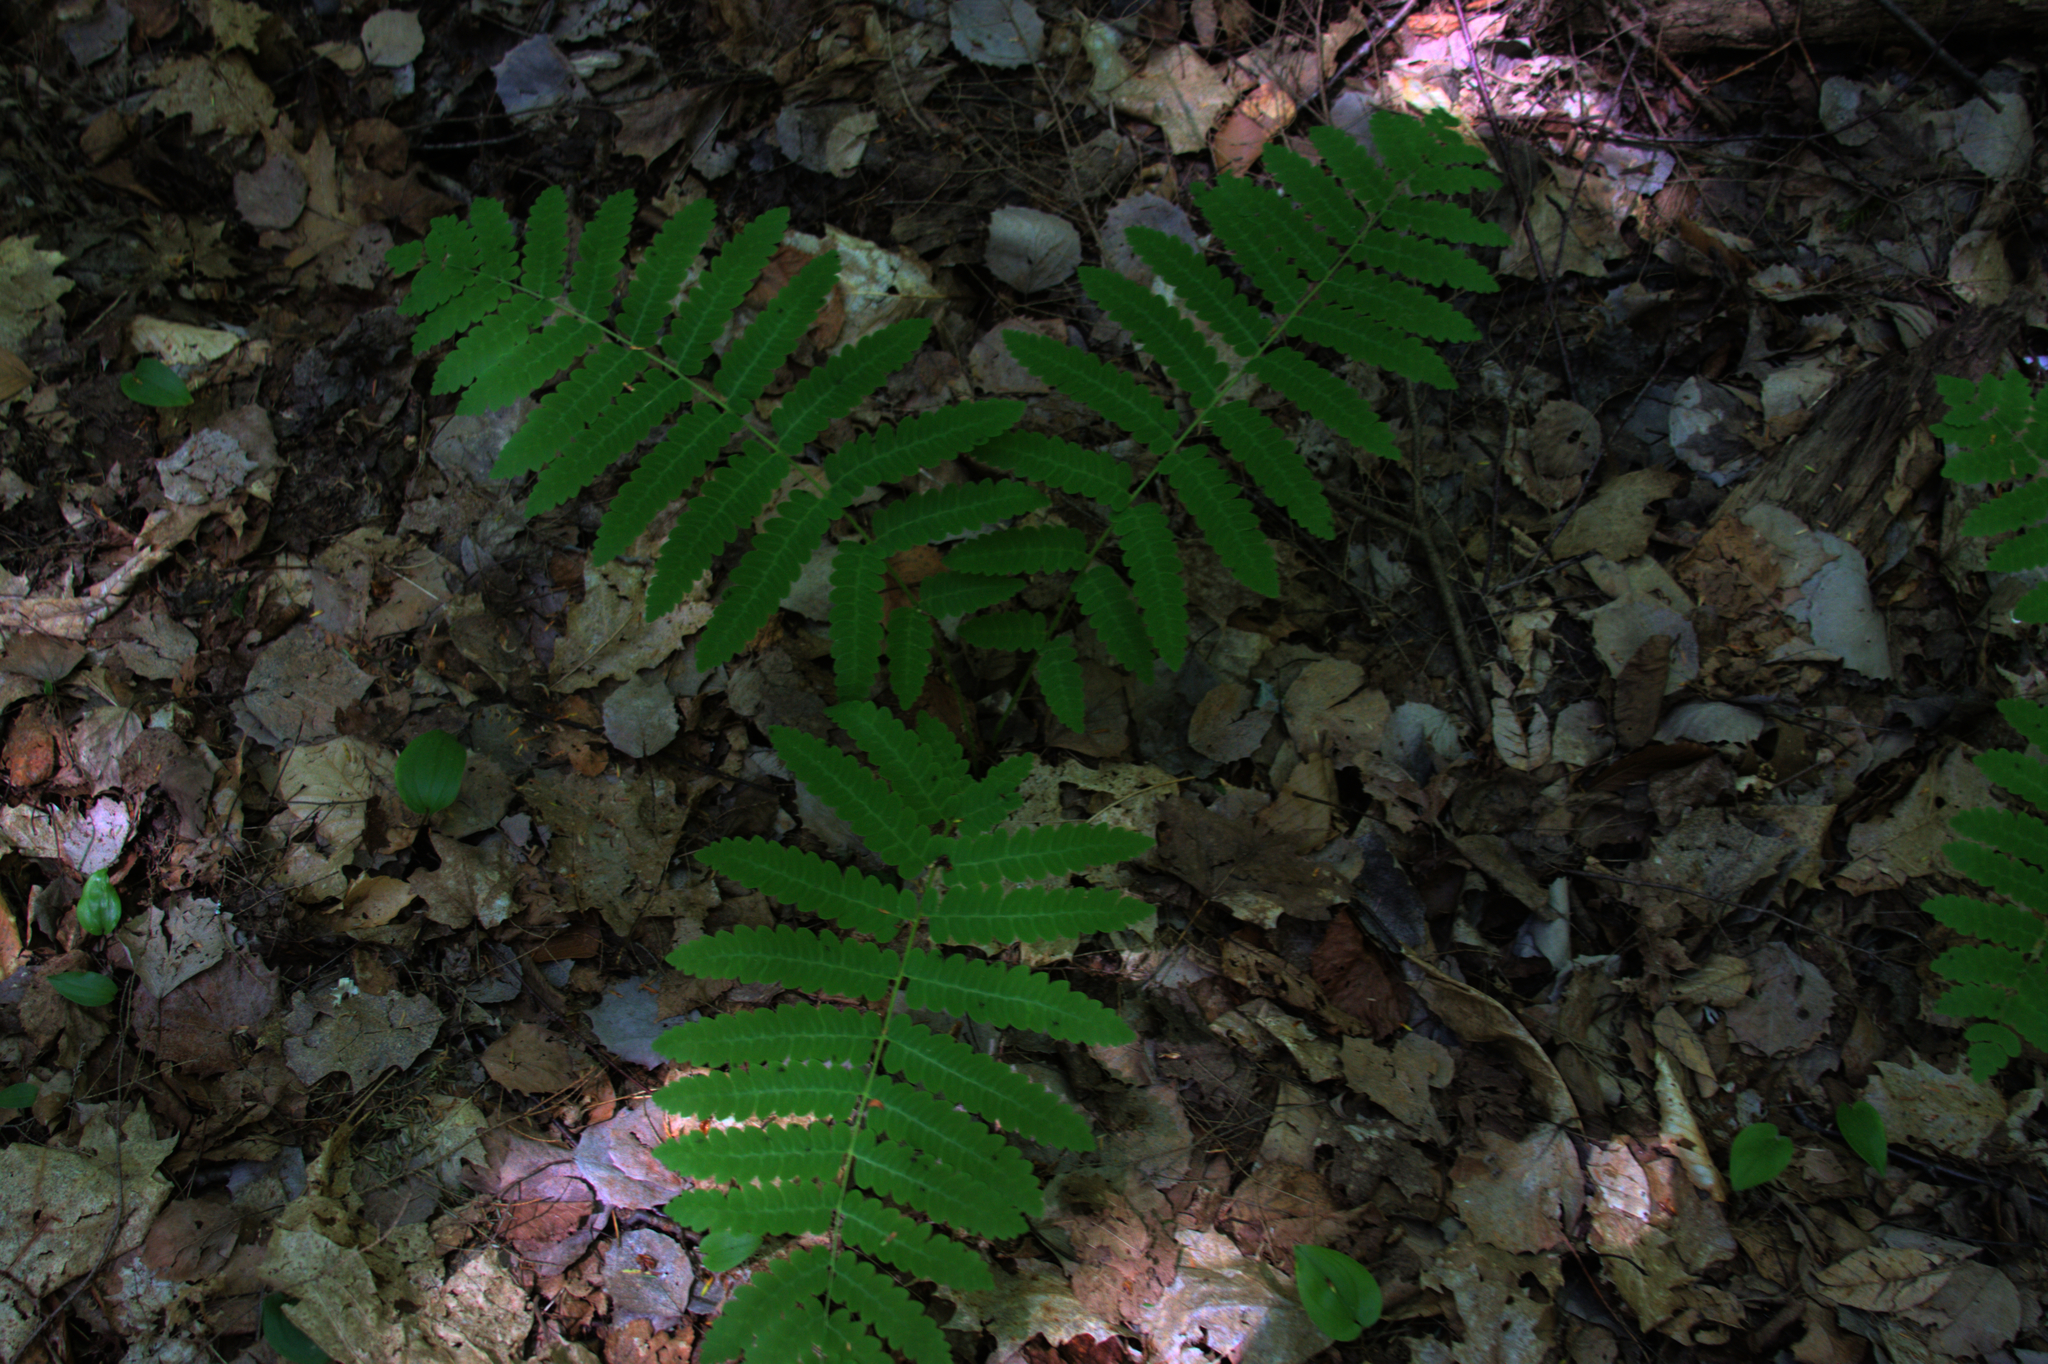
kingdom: Plantae
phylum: Tracheophyta
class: Polypodiopsida
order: Osmundales
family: Osmundaceae
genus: Claytosmunda
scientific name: Claytosmunda claytoniana
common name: Clayton's fern
